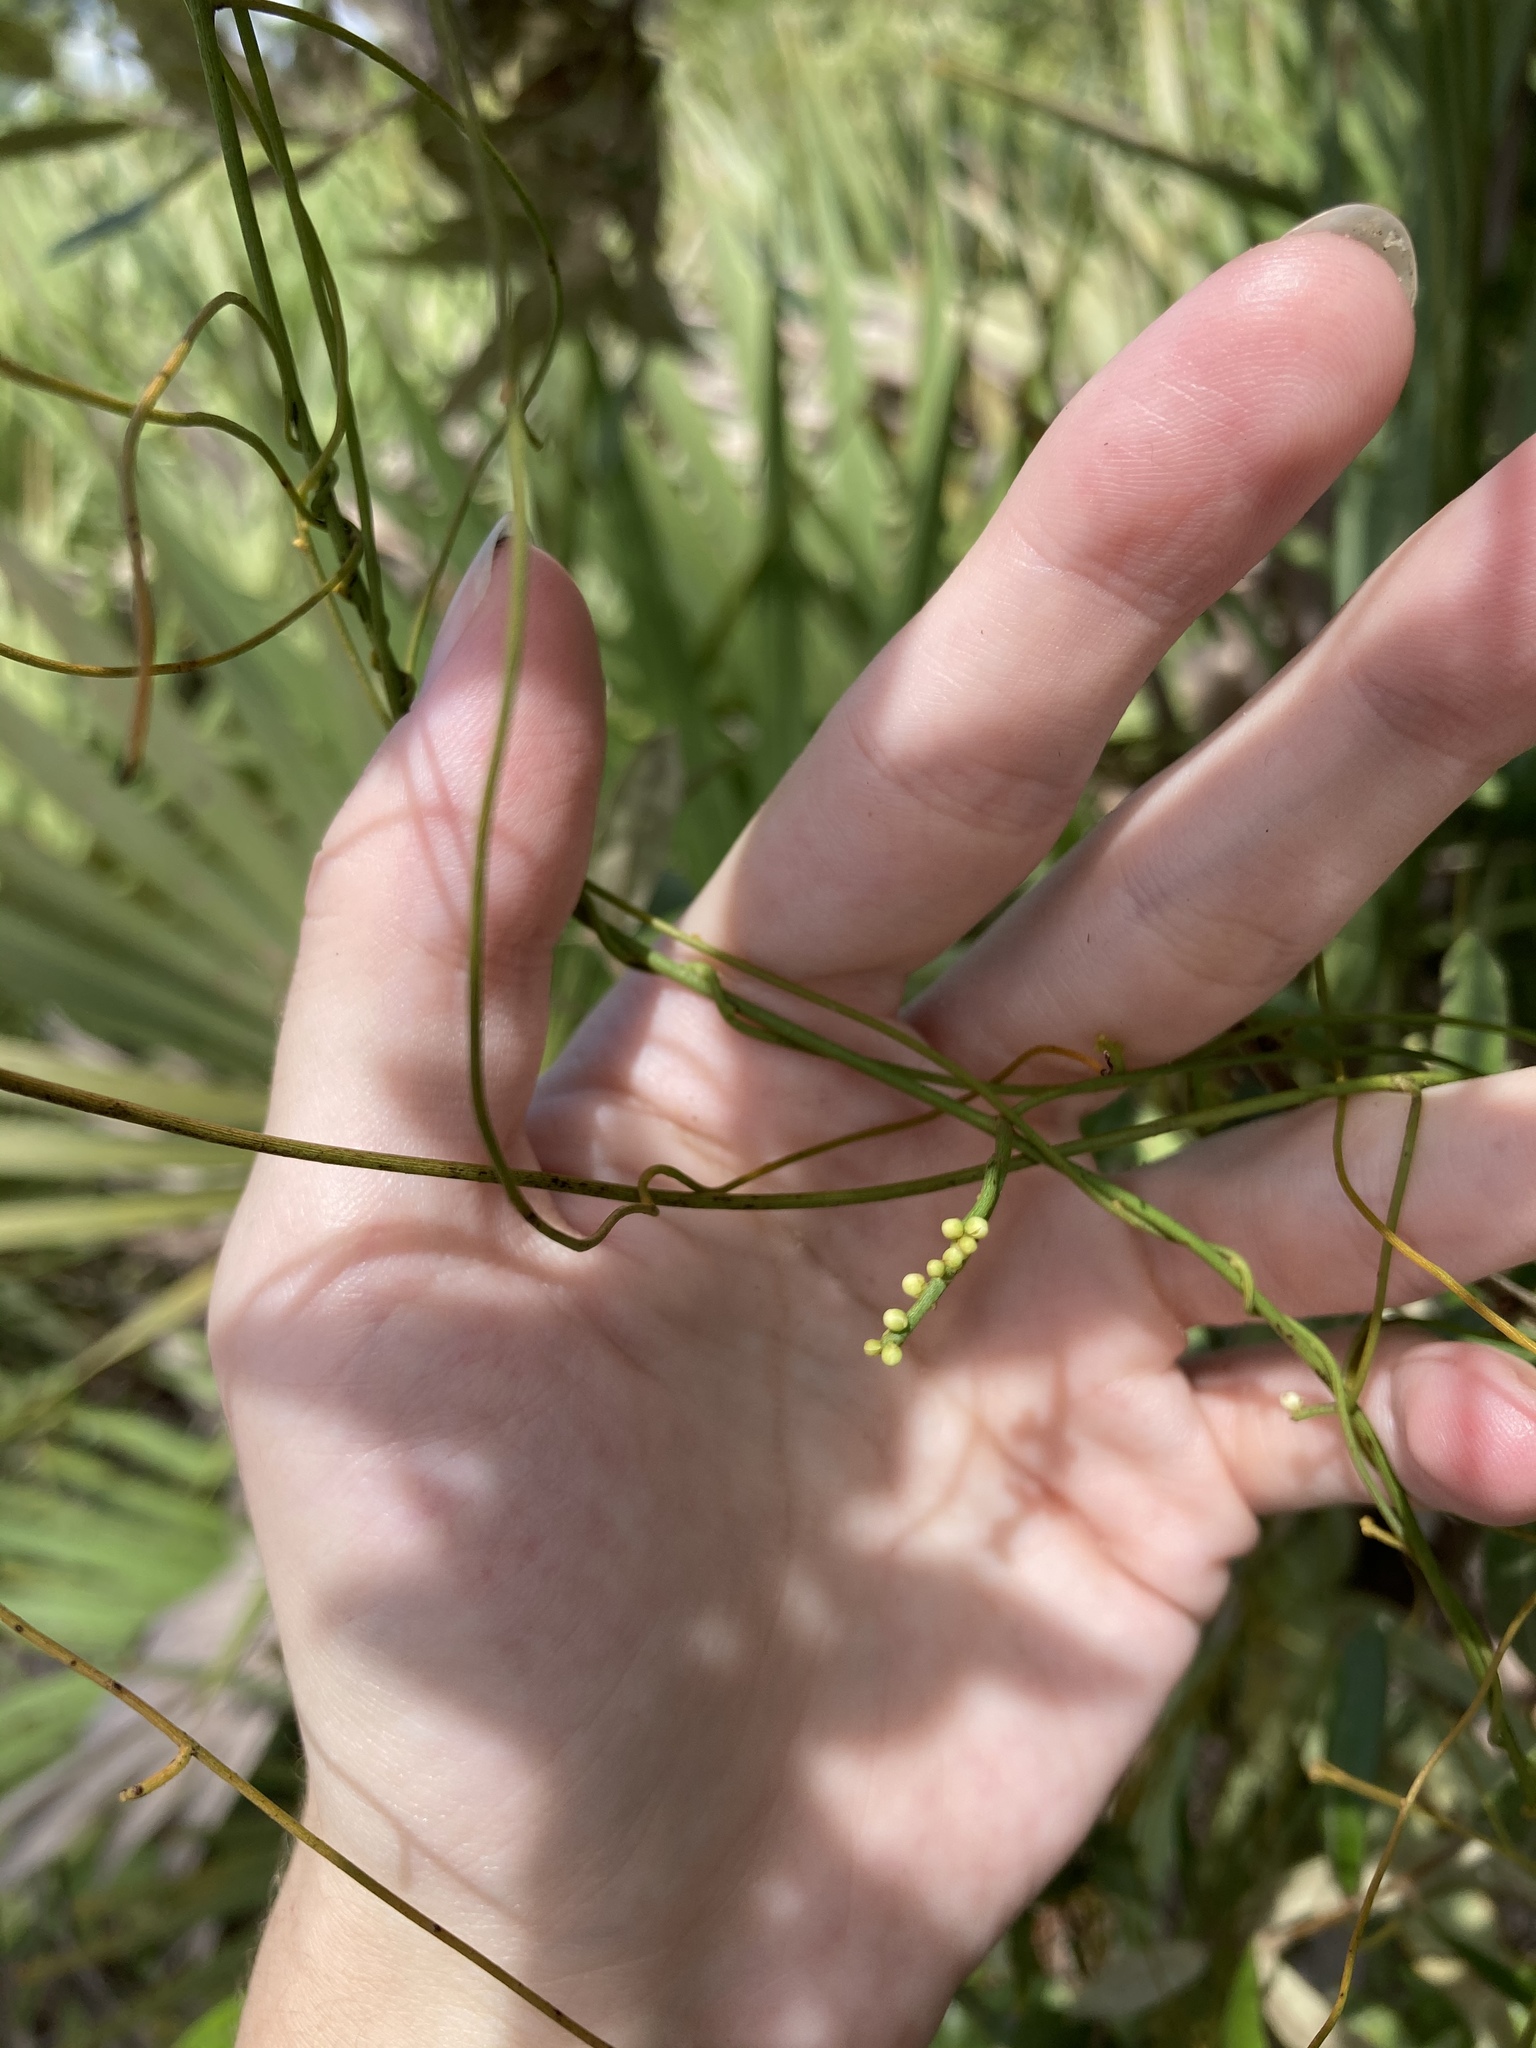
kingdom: Plantae
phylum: Tracheophyta
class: Magnoliopsida
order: Laurales
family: Lauraceae
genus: Cassytha
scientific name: Cassytha filiformis
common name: Dodder-laurel
